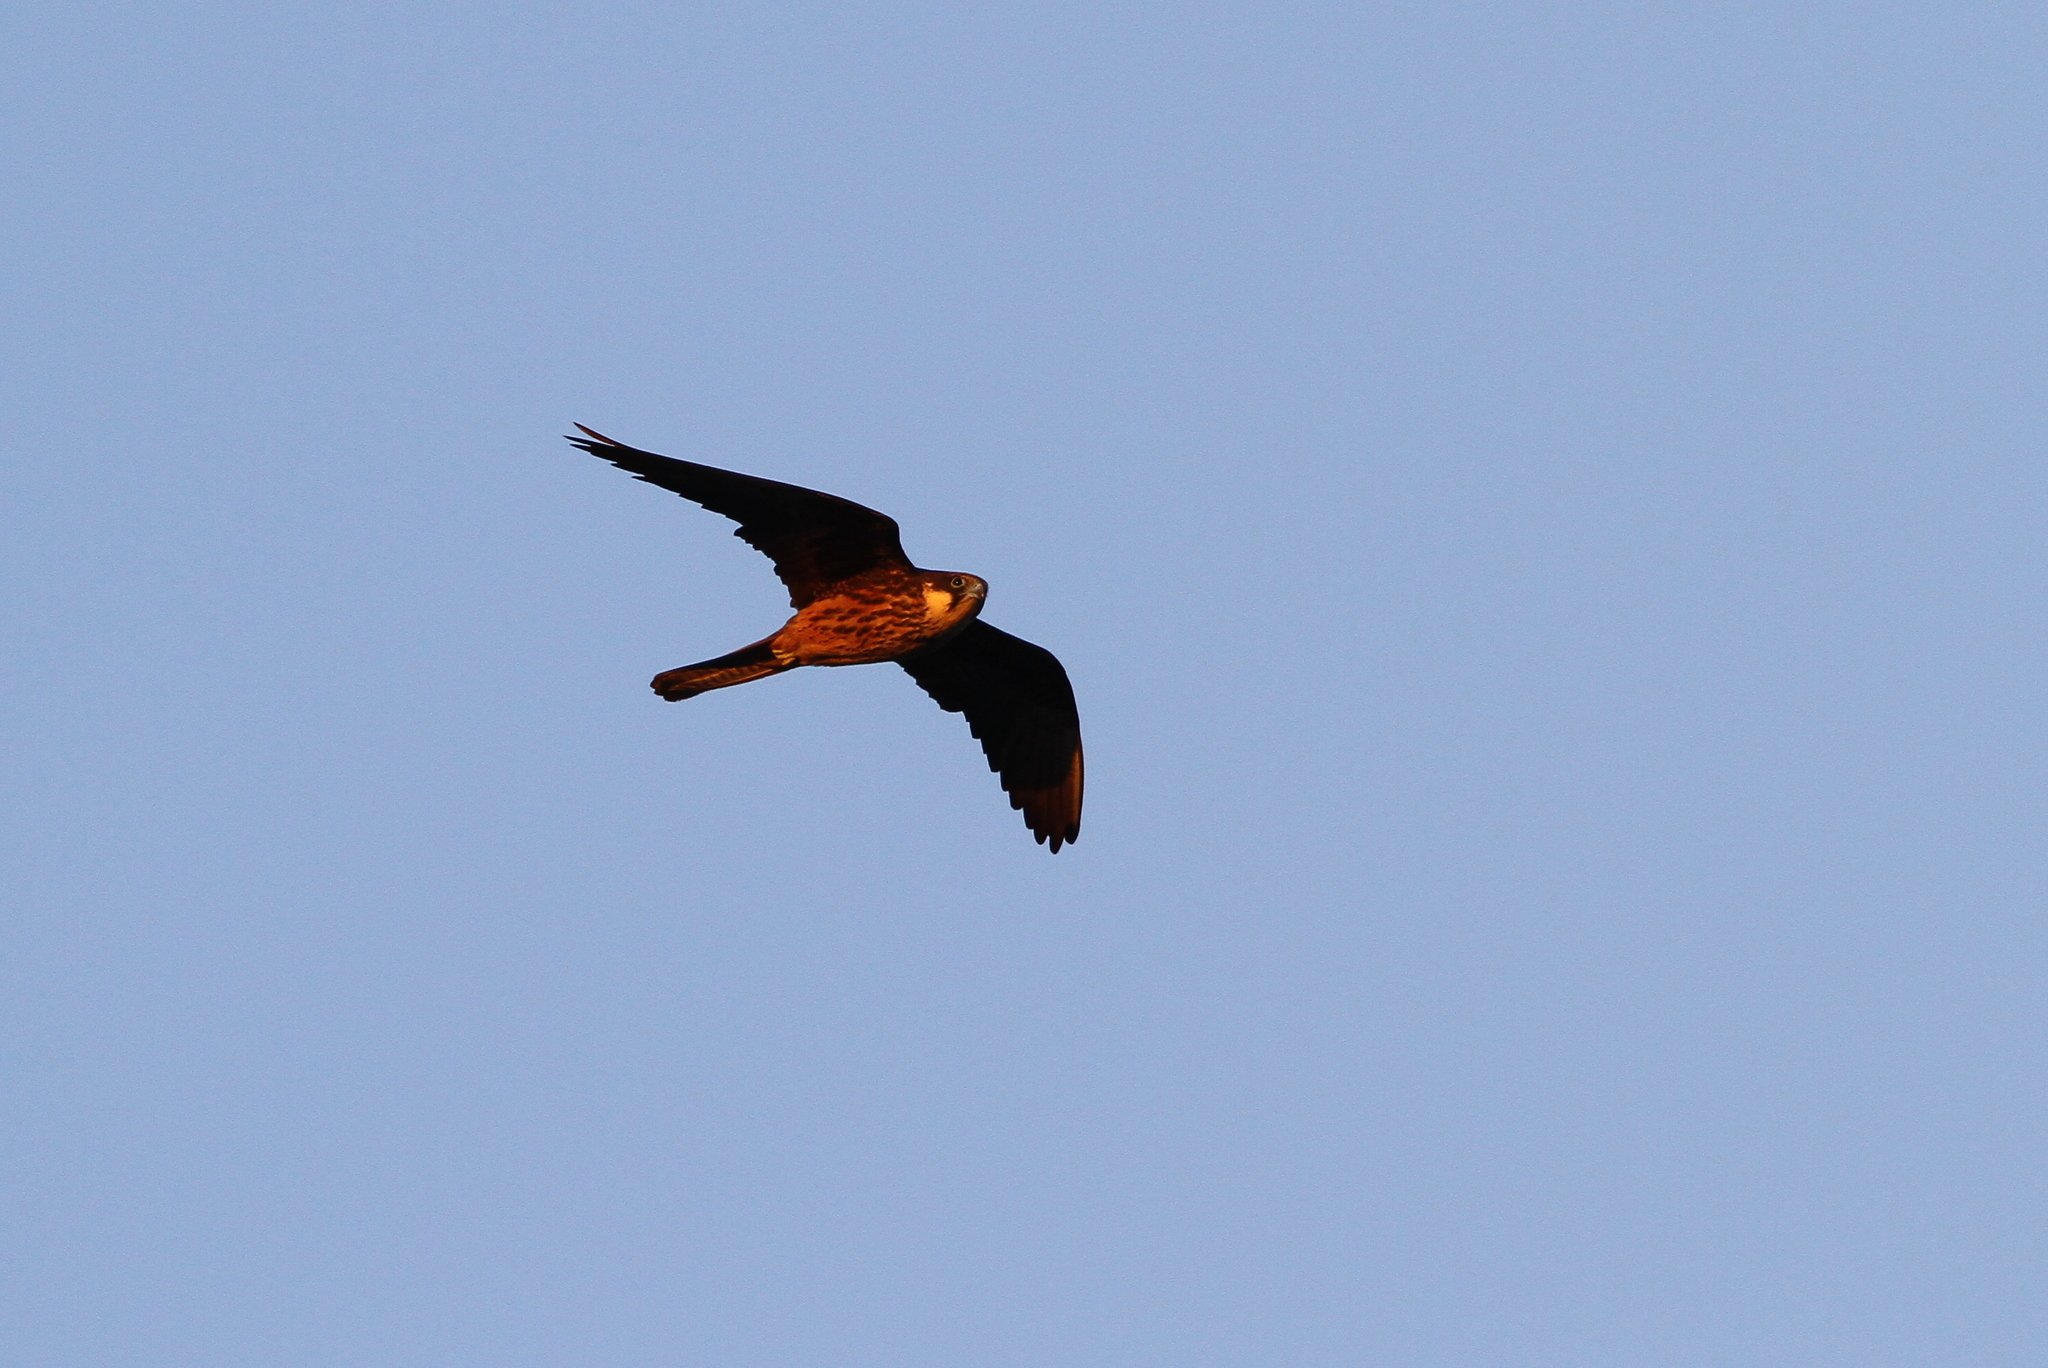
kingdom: Animalia
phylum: Chordata
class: Aves
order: Falconiformes
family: Falconidae
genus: Falco
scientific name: Falco eleonorae
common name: Eleonora's falcon
